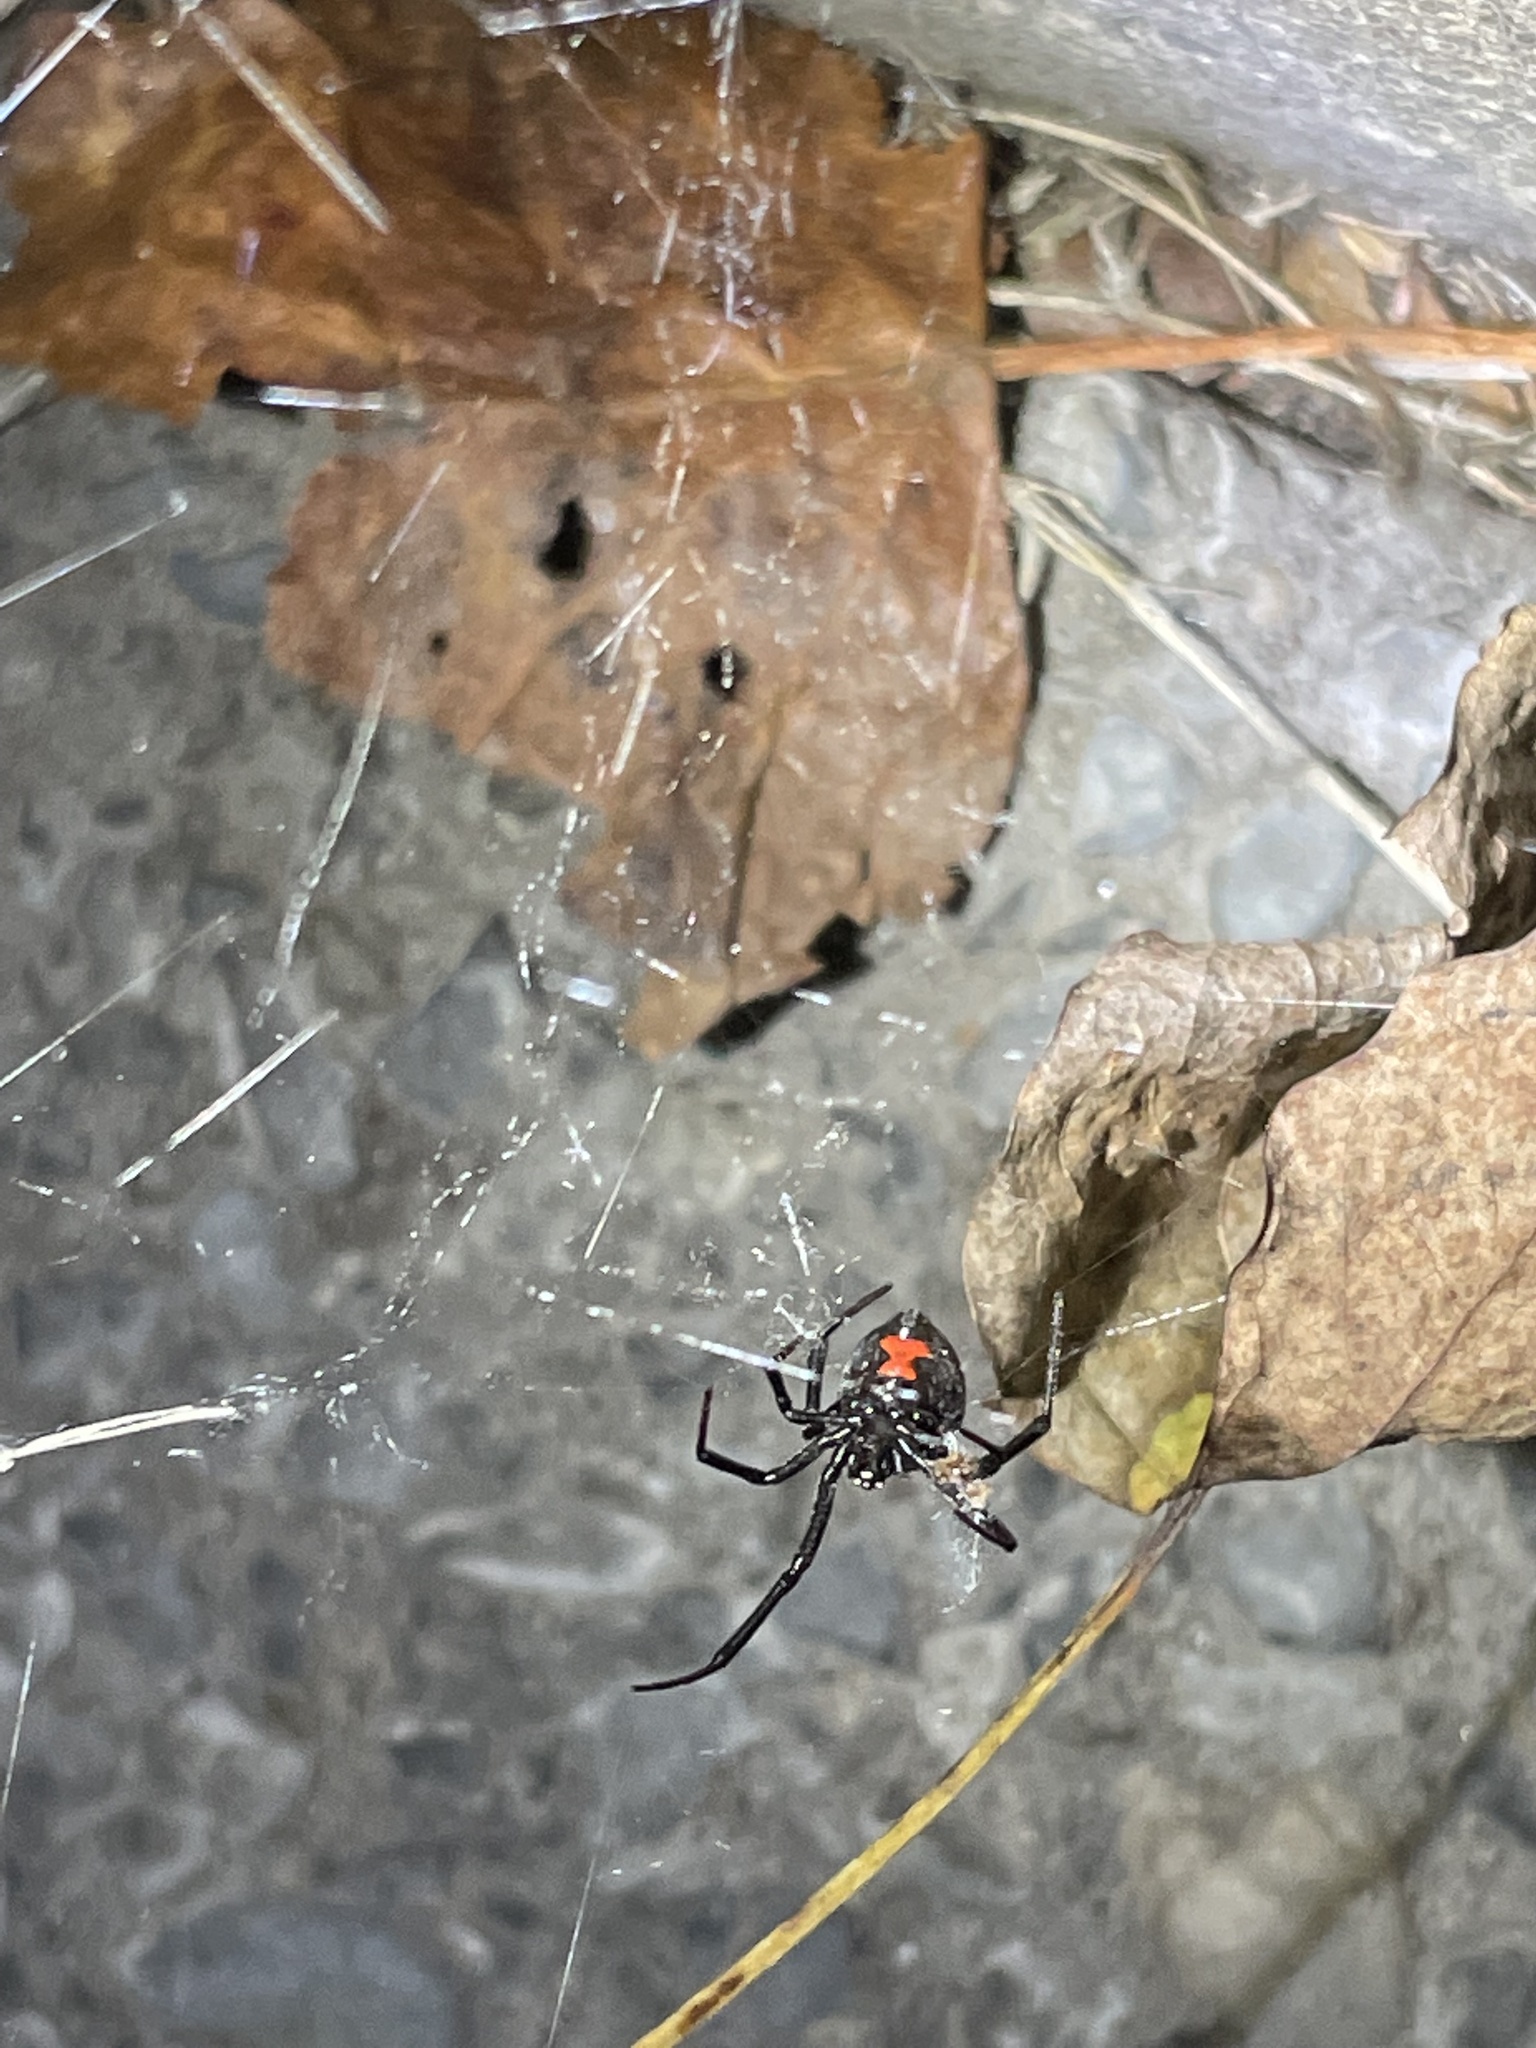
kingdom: Animalia
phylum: Arthropoda
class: Arachnida
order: Araneae
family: Theridiidae
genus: Latrodectus
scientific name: Latrodectus mactans
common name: Cobweb spiders
